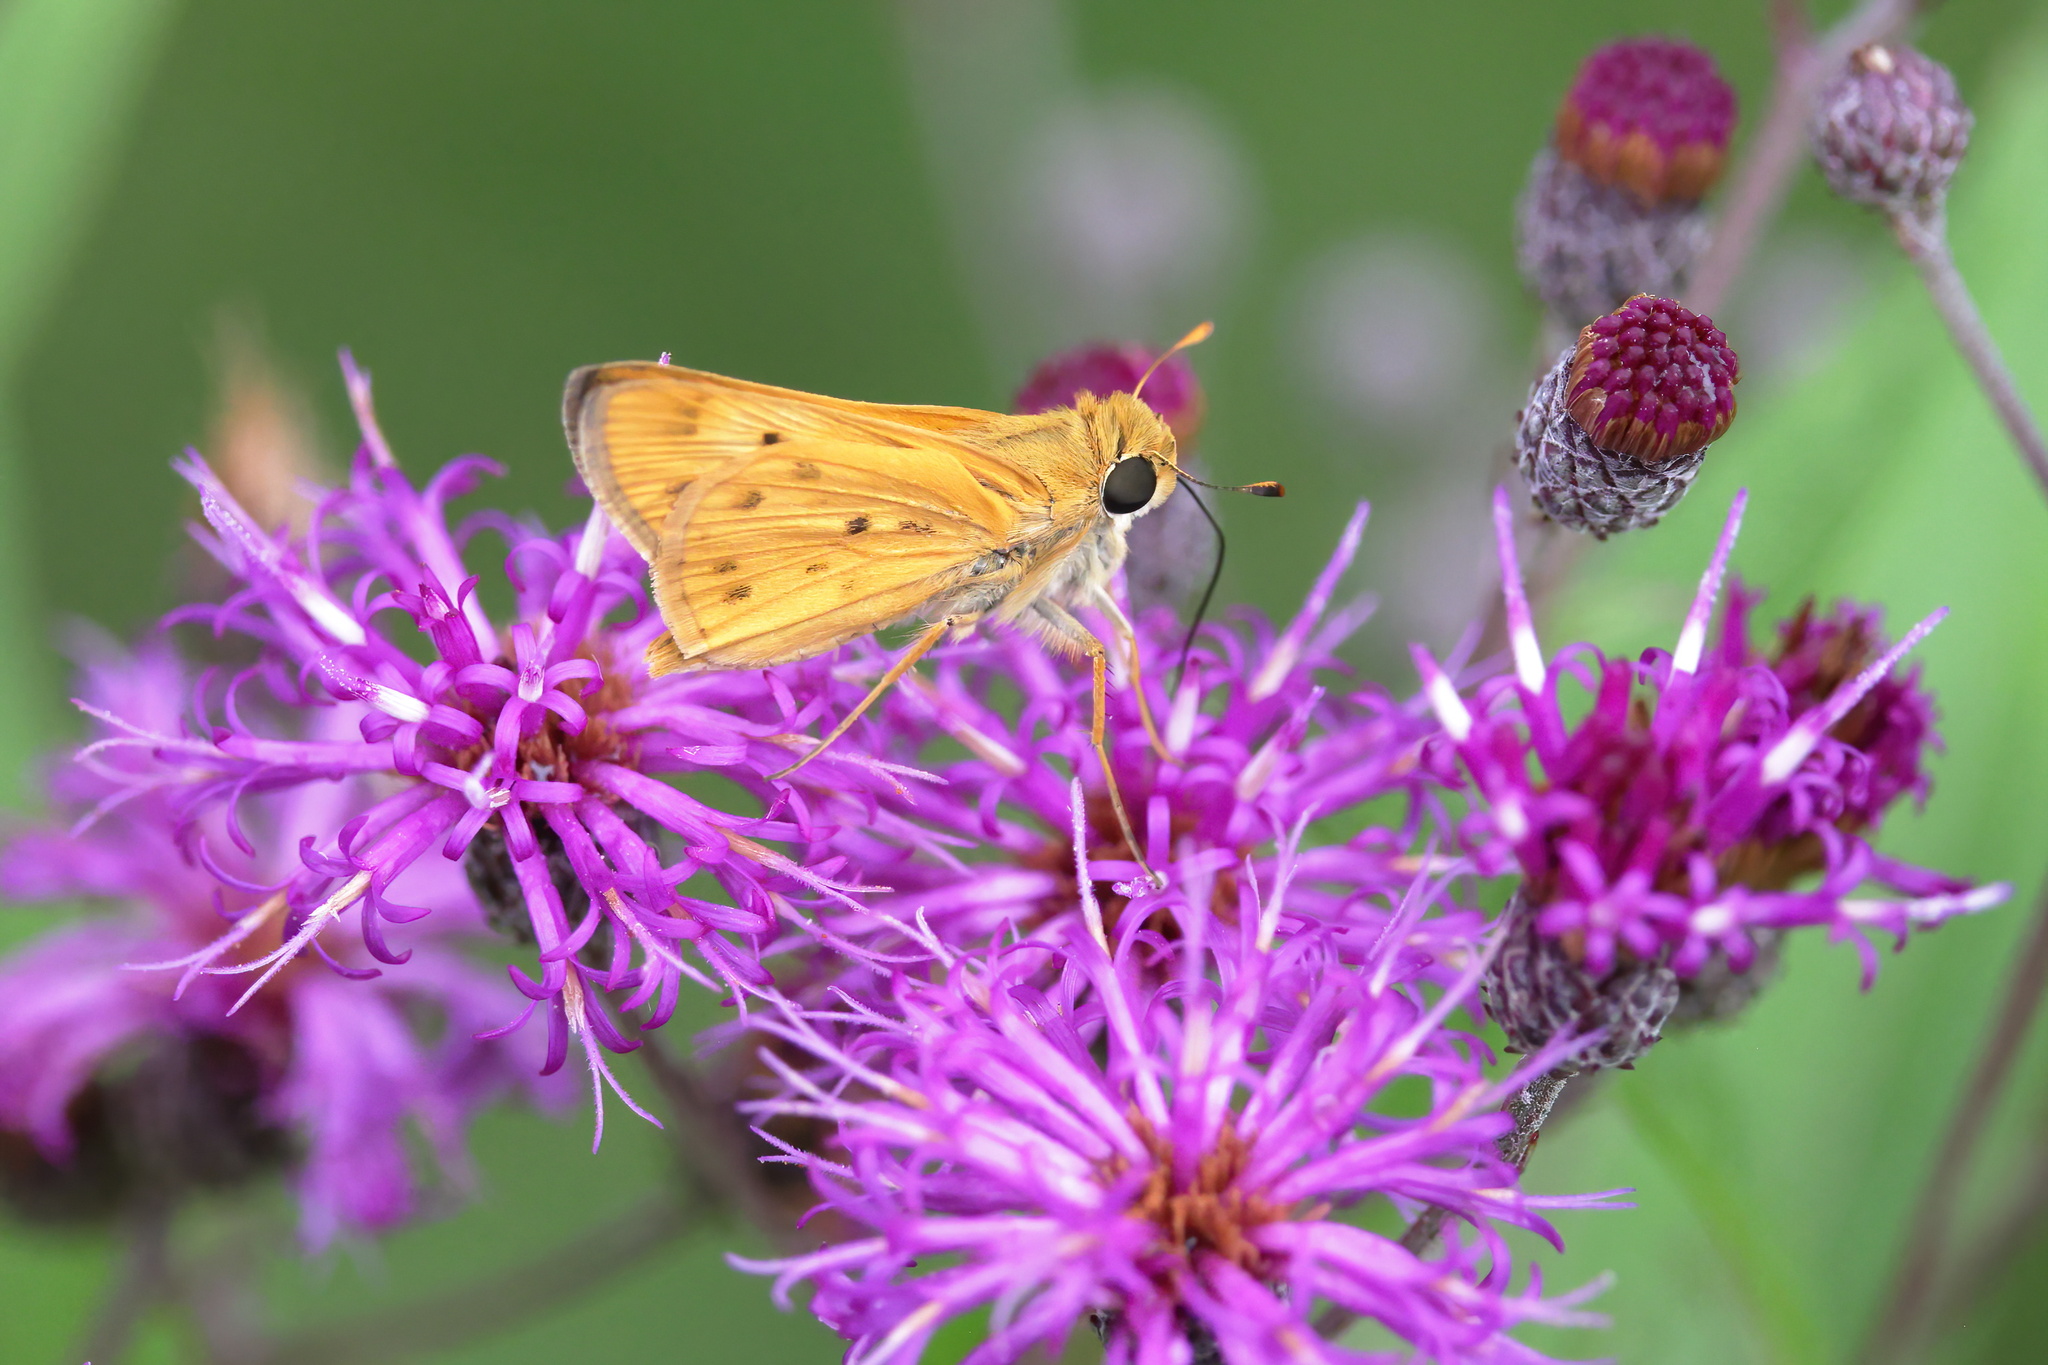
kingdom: Animalia
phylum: Arthropoda
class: Insecta
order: Lepidoptera
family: Hesperiidae
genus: Hylephila
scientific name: Hylephila phyleus
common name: Fiery skipper
